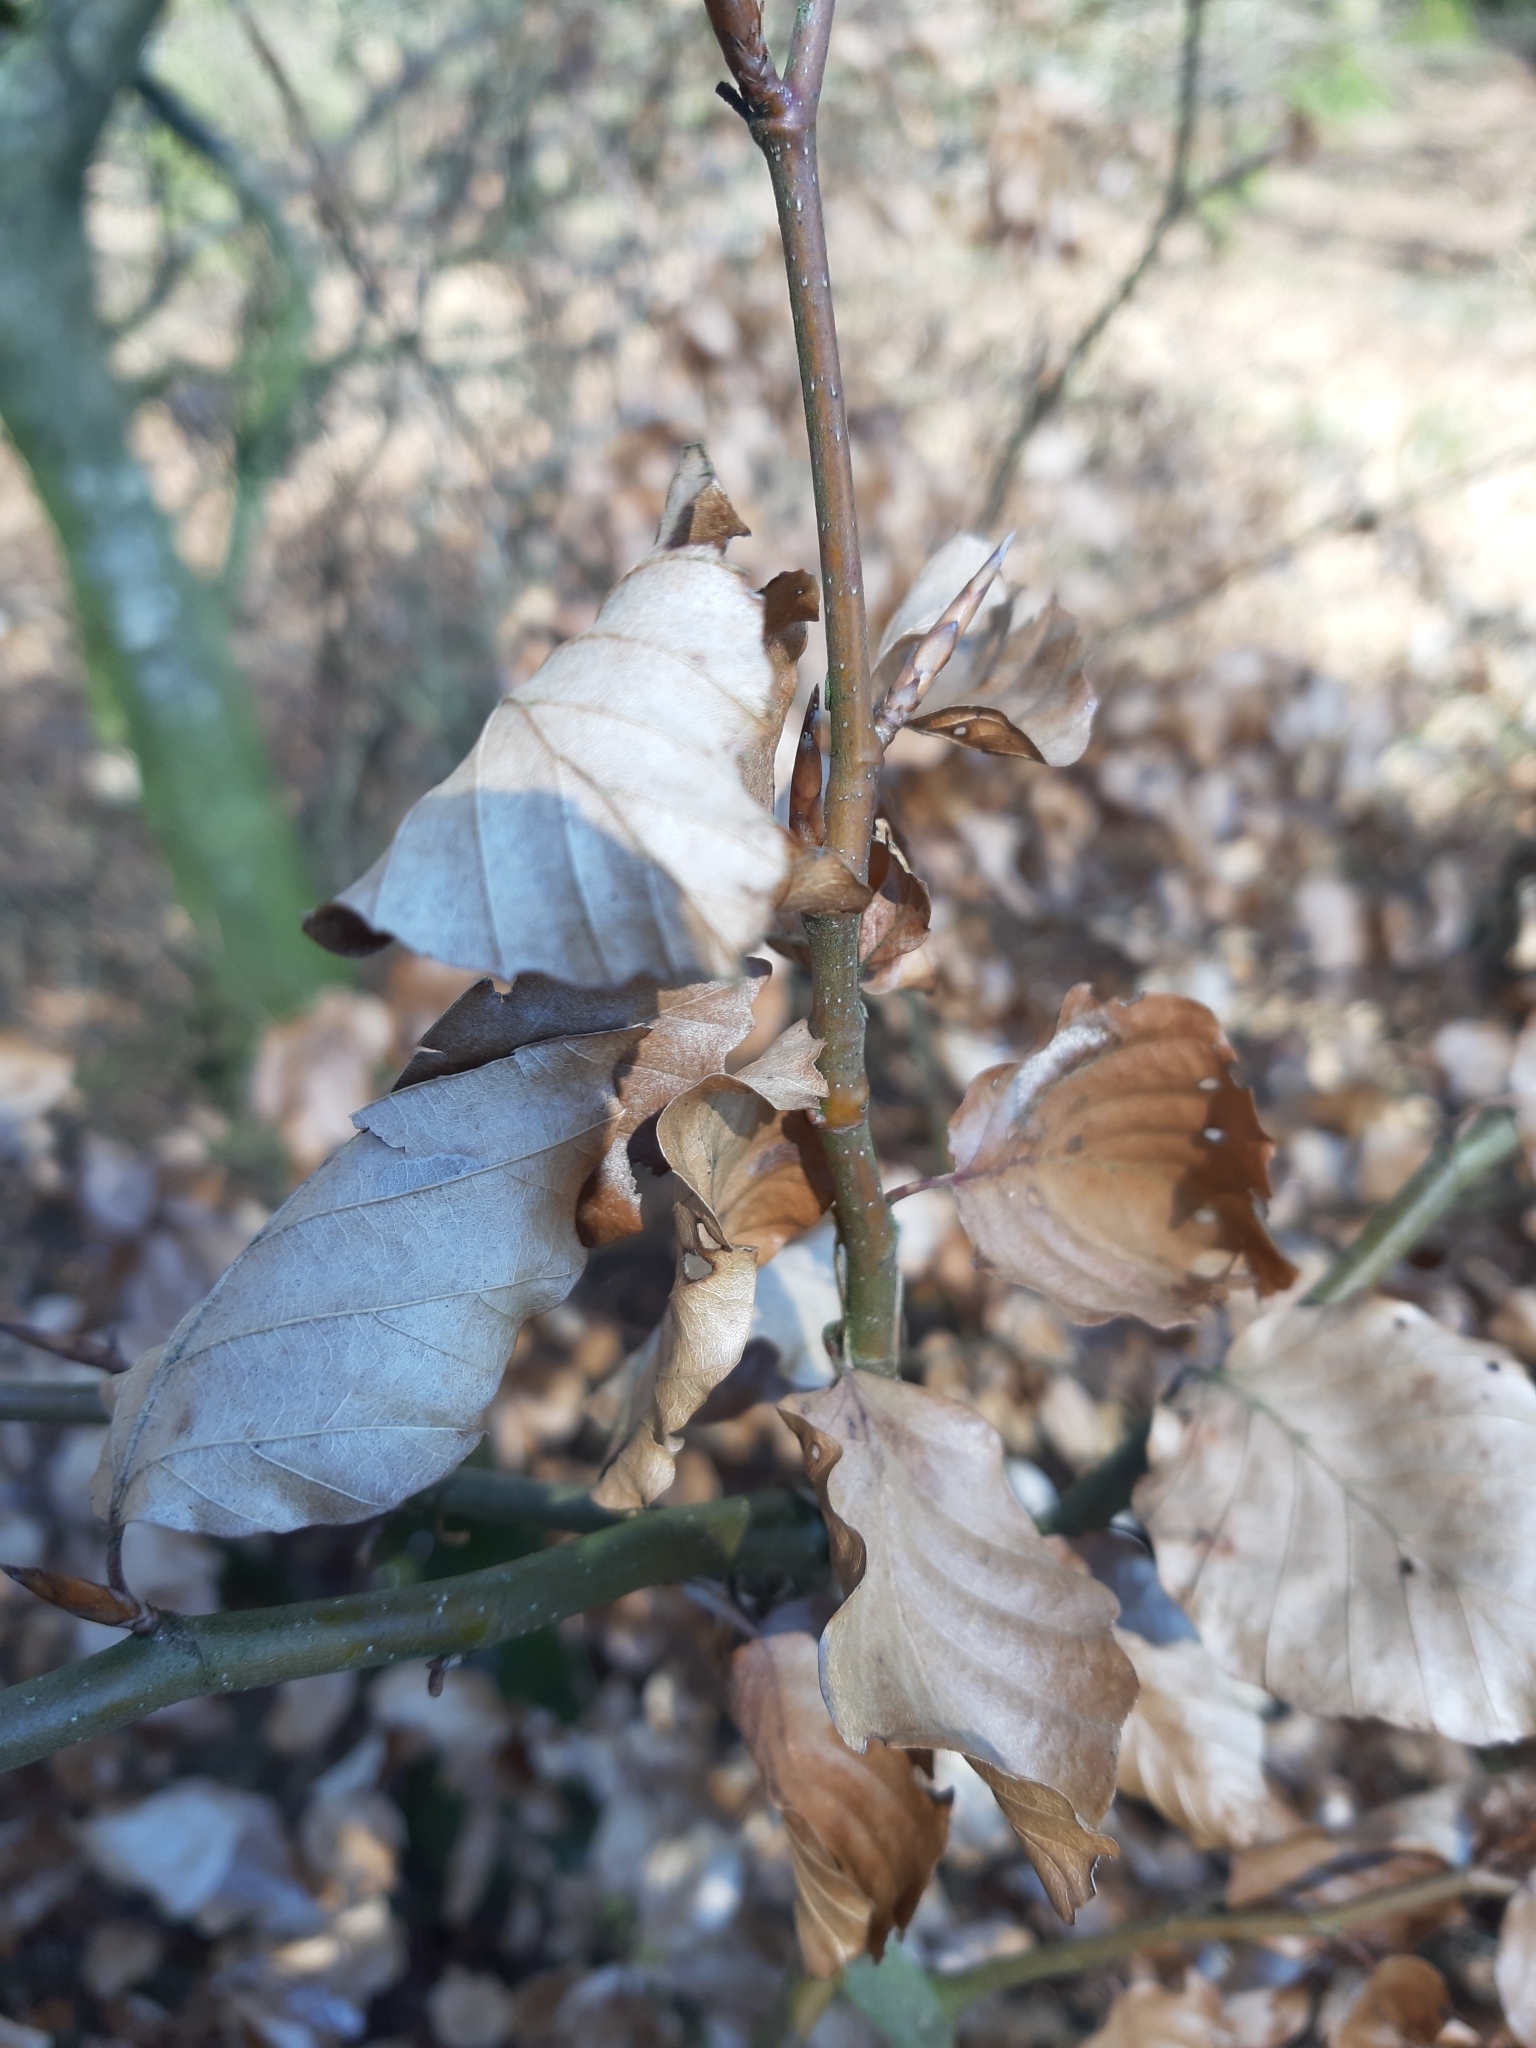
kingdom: Plantae
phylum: Tracheophyta
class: Magnoliopsida
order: Fagales
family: Fagaceae
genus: Fagus
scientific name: Fagus sylvatica
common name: Beech
